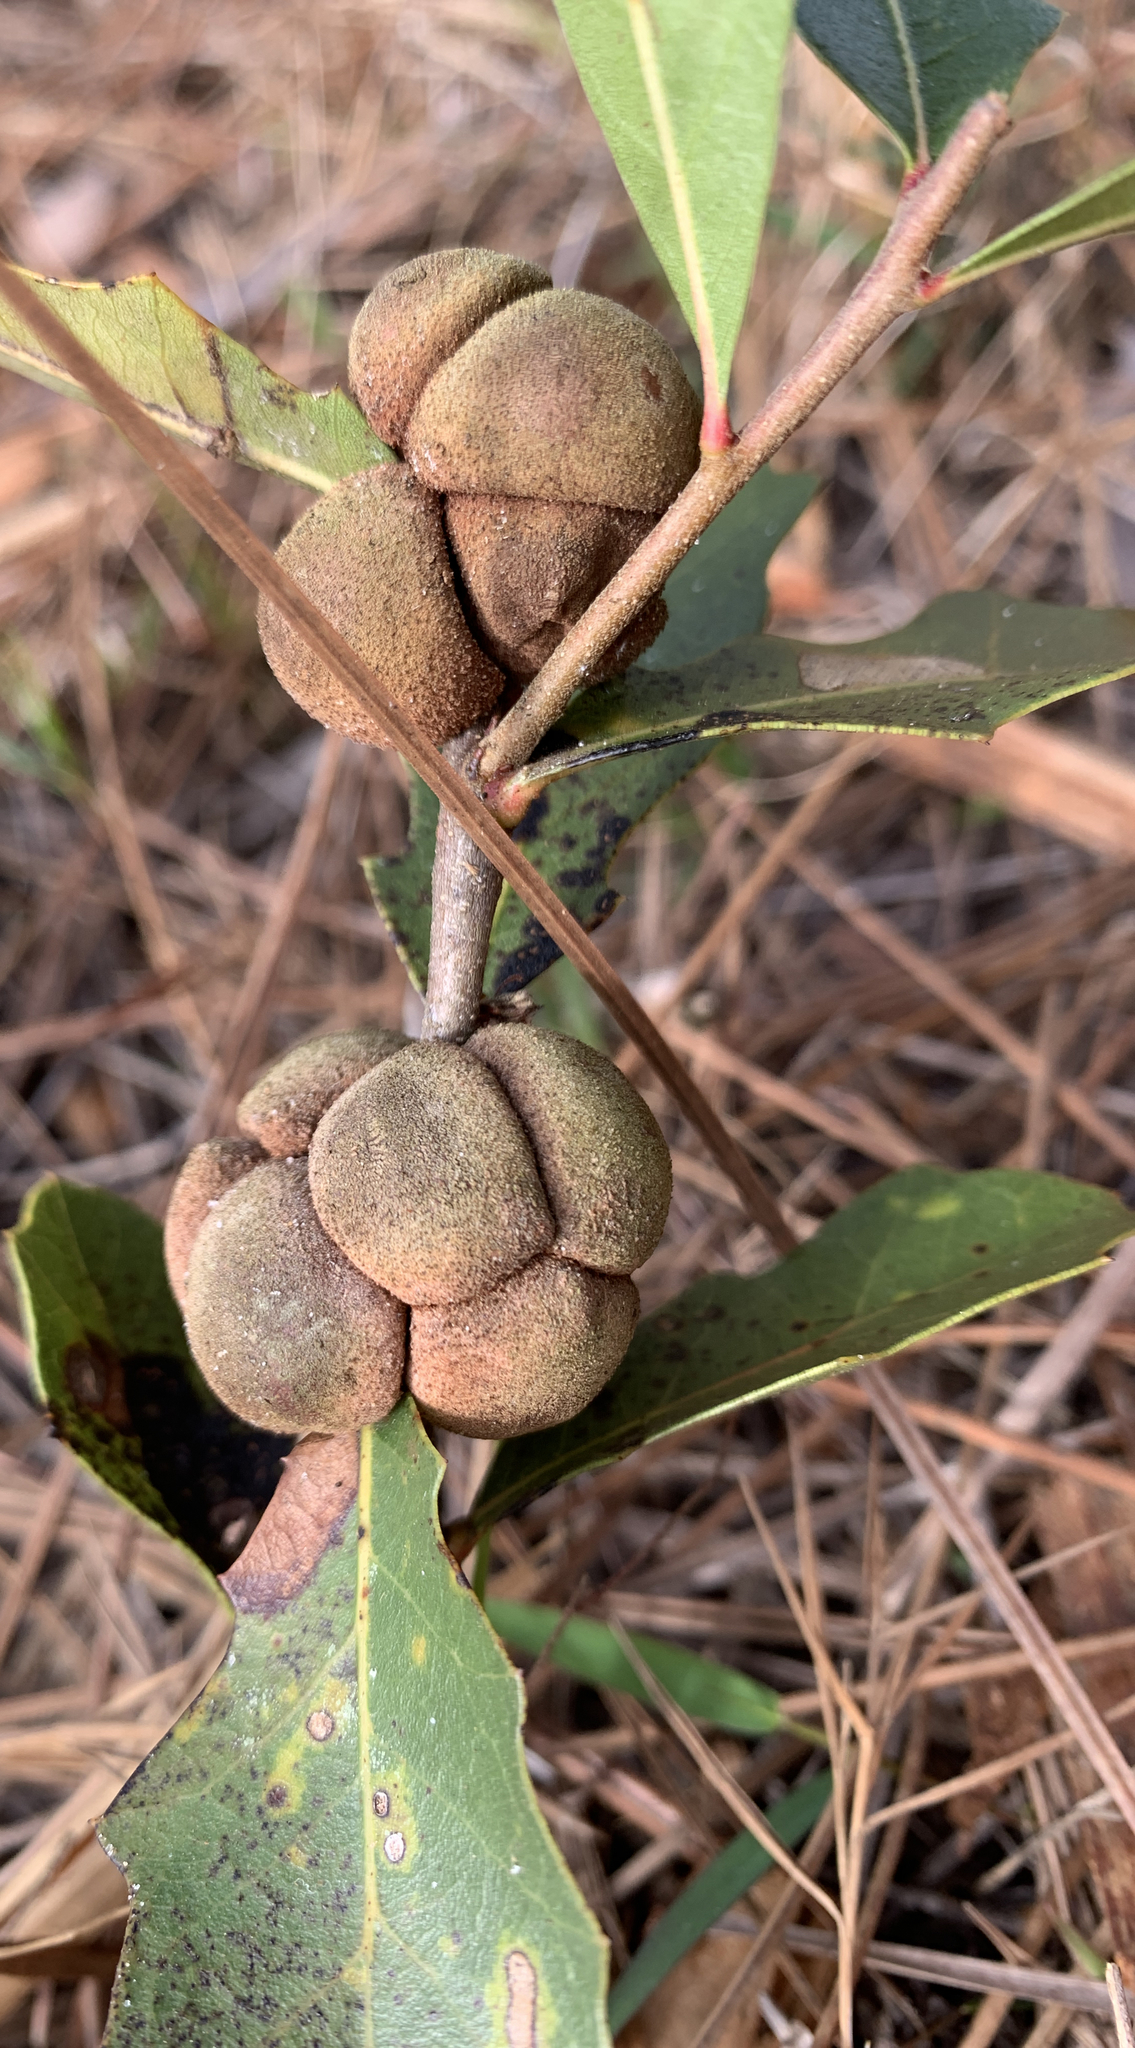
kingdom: Animalia
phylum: Arthropoda
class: Insecta
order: Hymenoptera
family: Cynipidae
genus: Disholcaspis
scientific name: Disholcaspis
